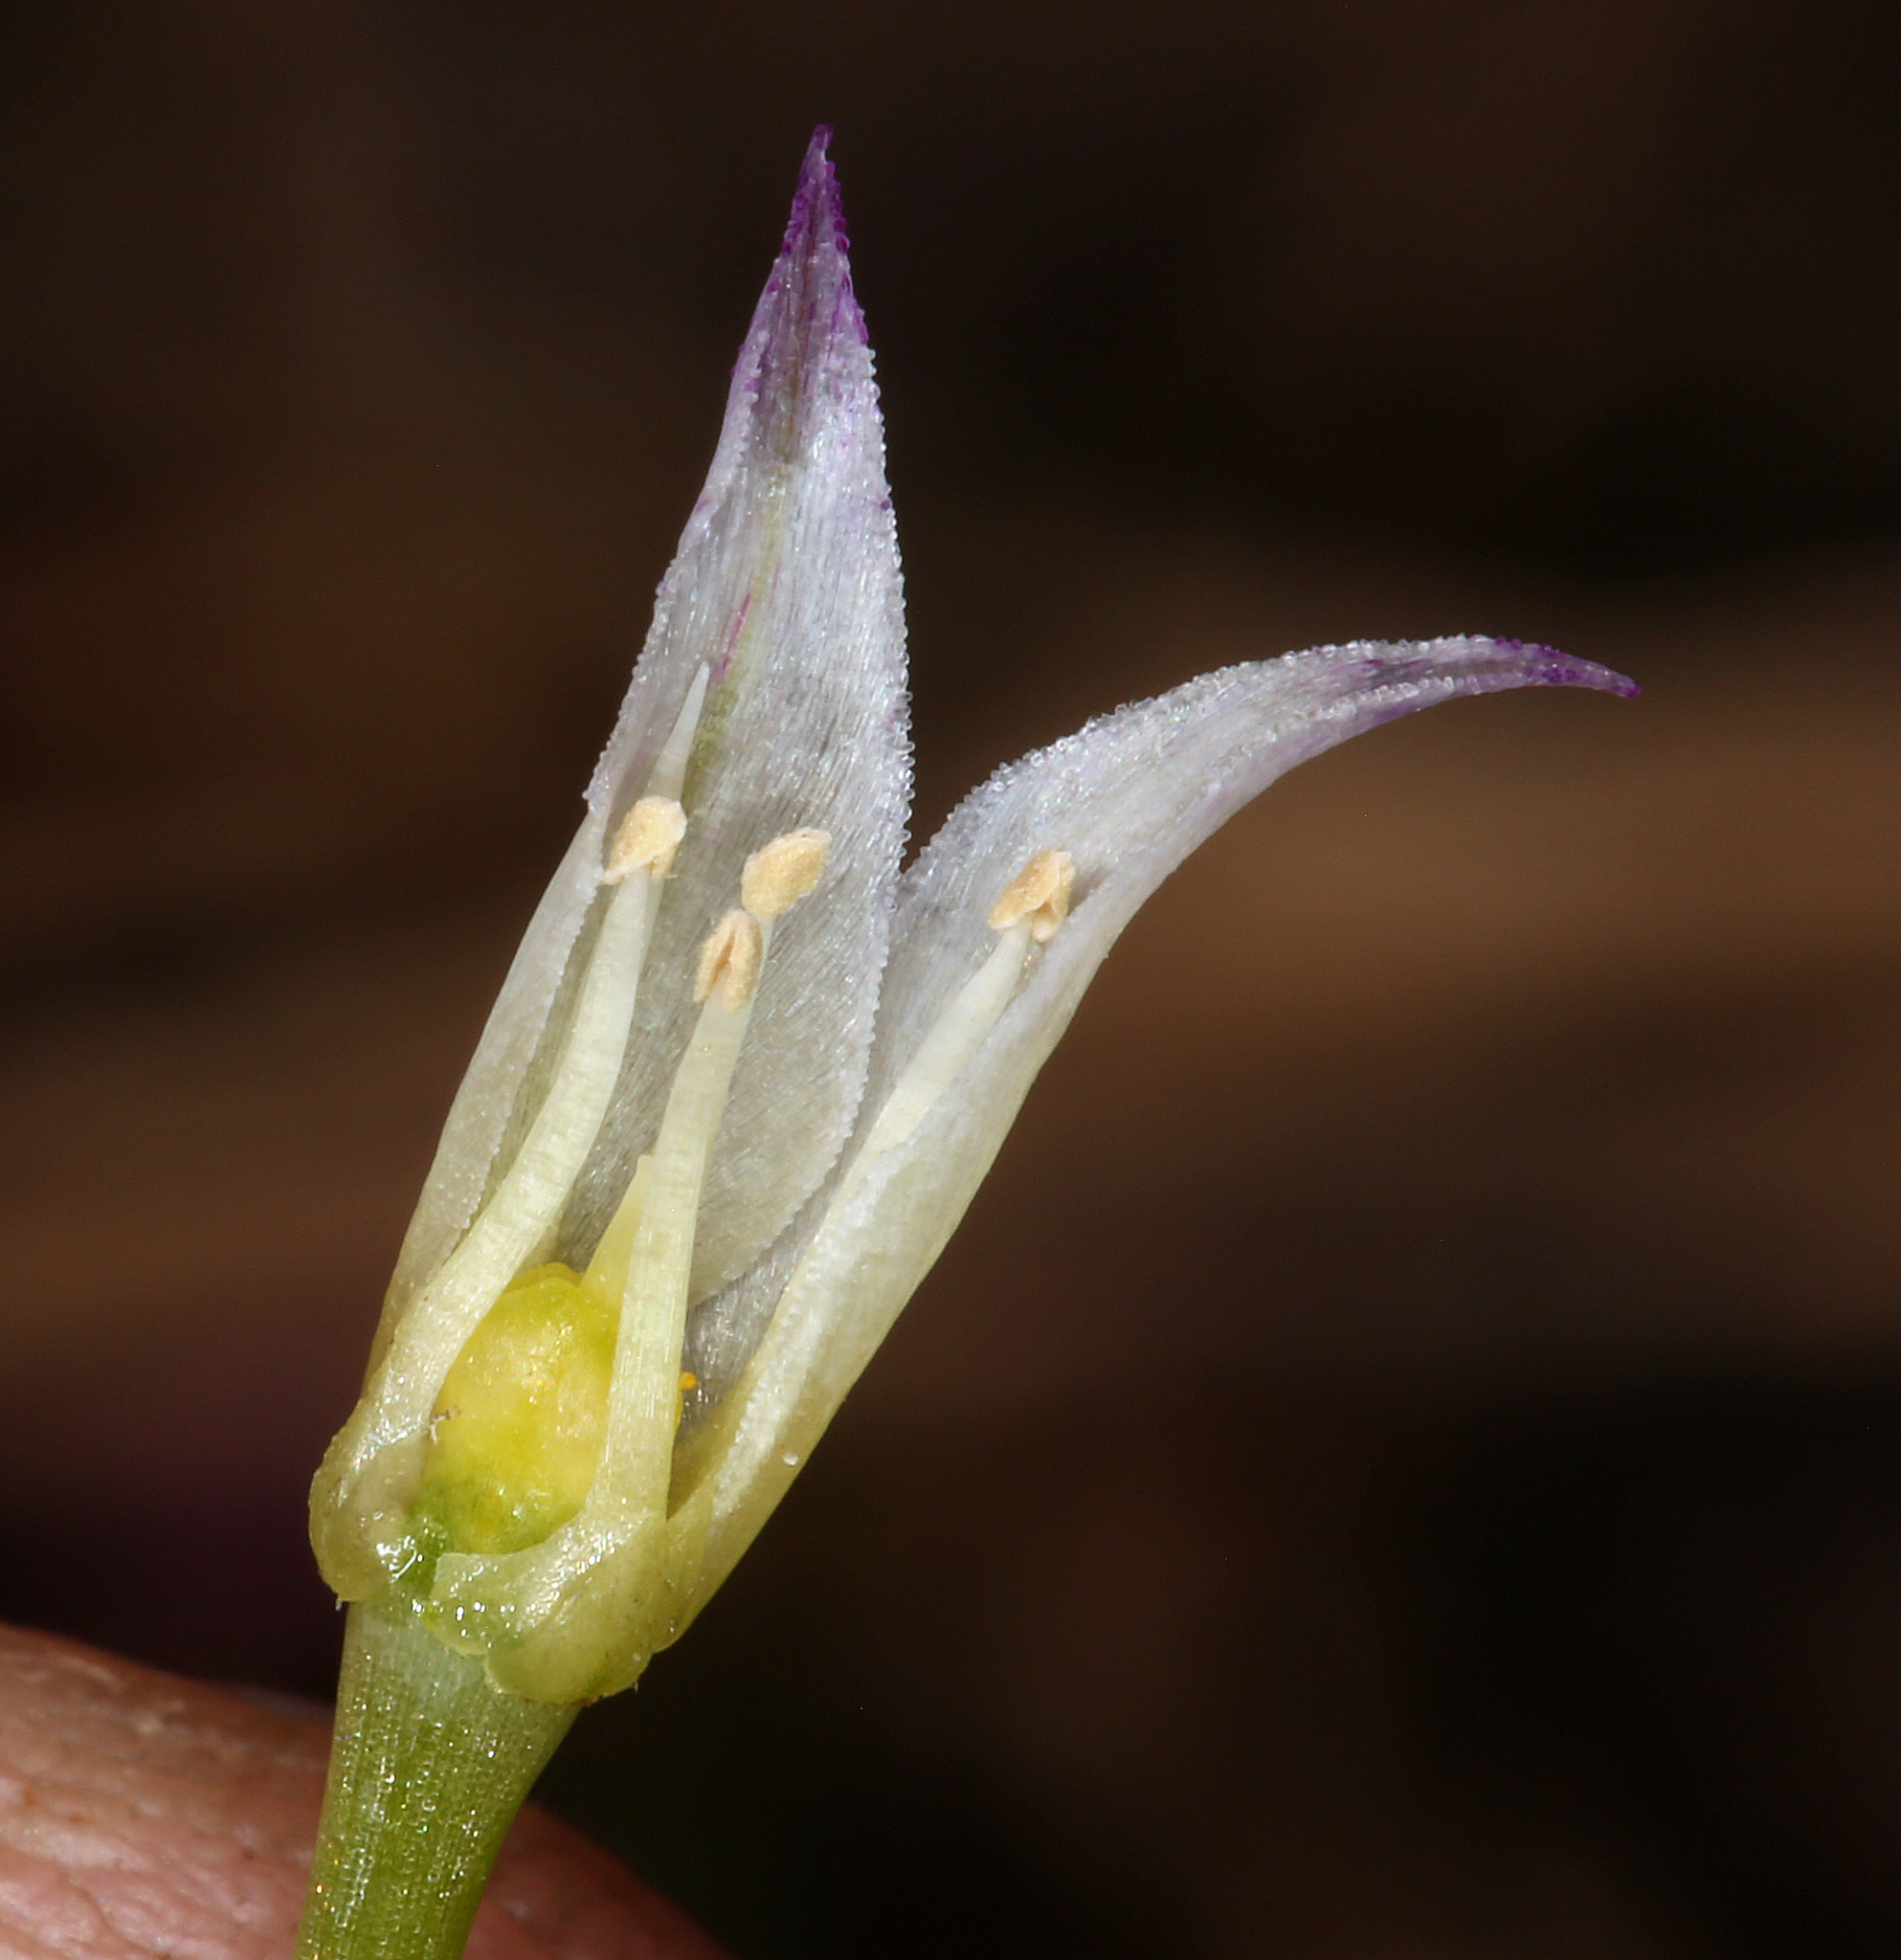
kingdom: Plantae
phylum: Tracheophyta
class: Liliopsida
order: Asparagales
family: Amaryllidaceae
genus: Allium
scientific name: Allium acuminatum
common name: Hooker's onion
